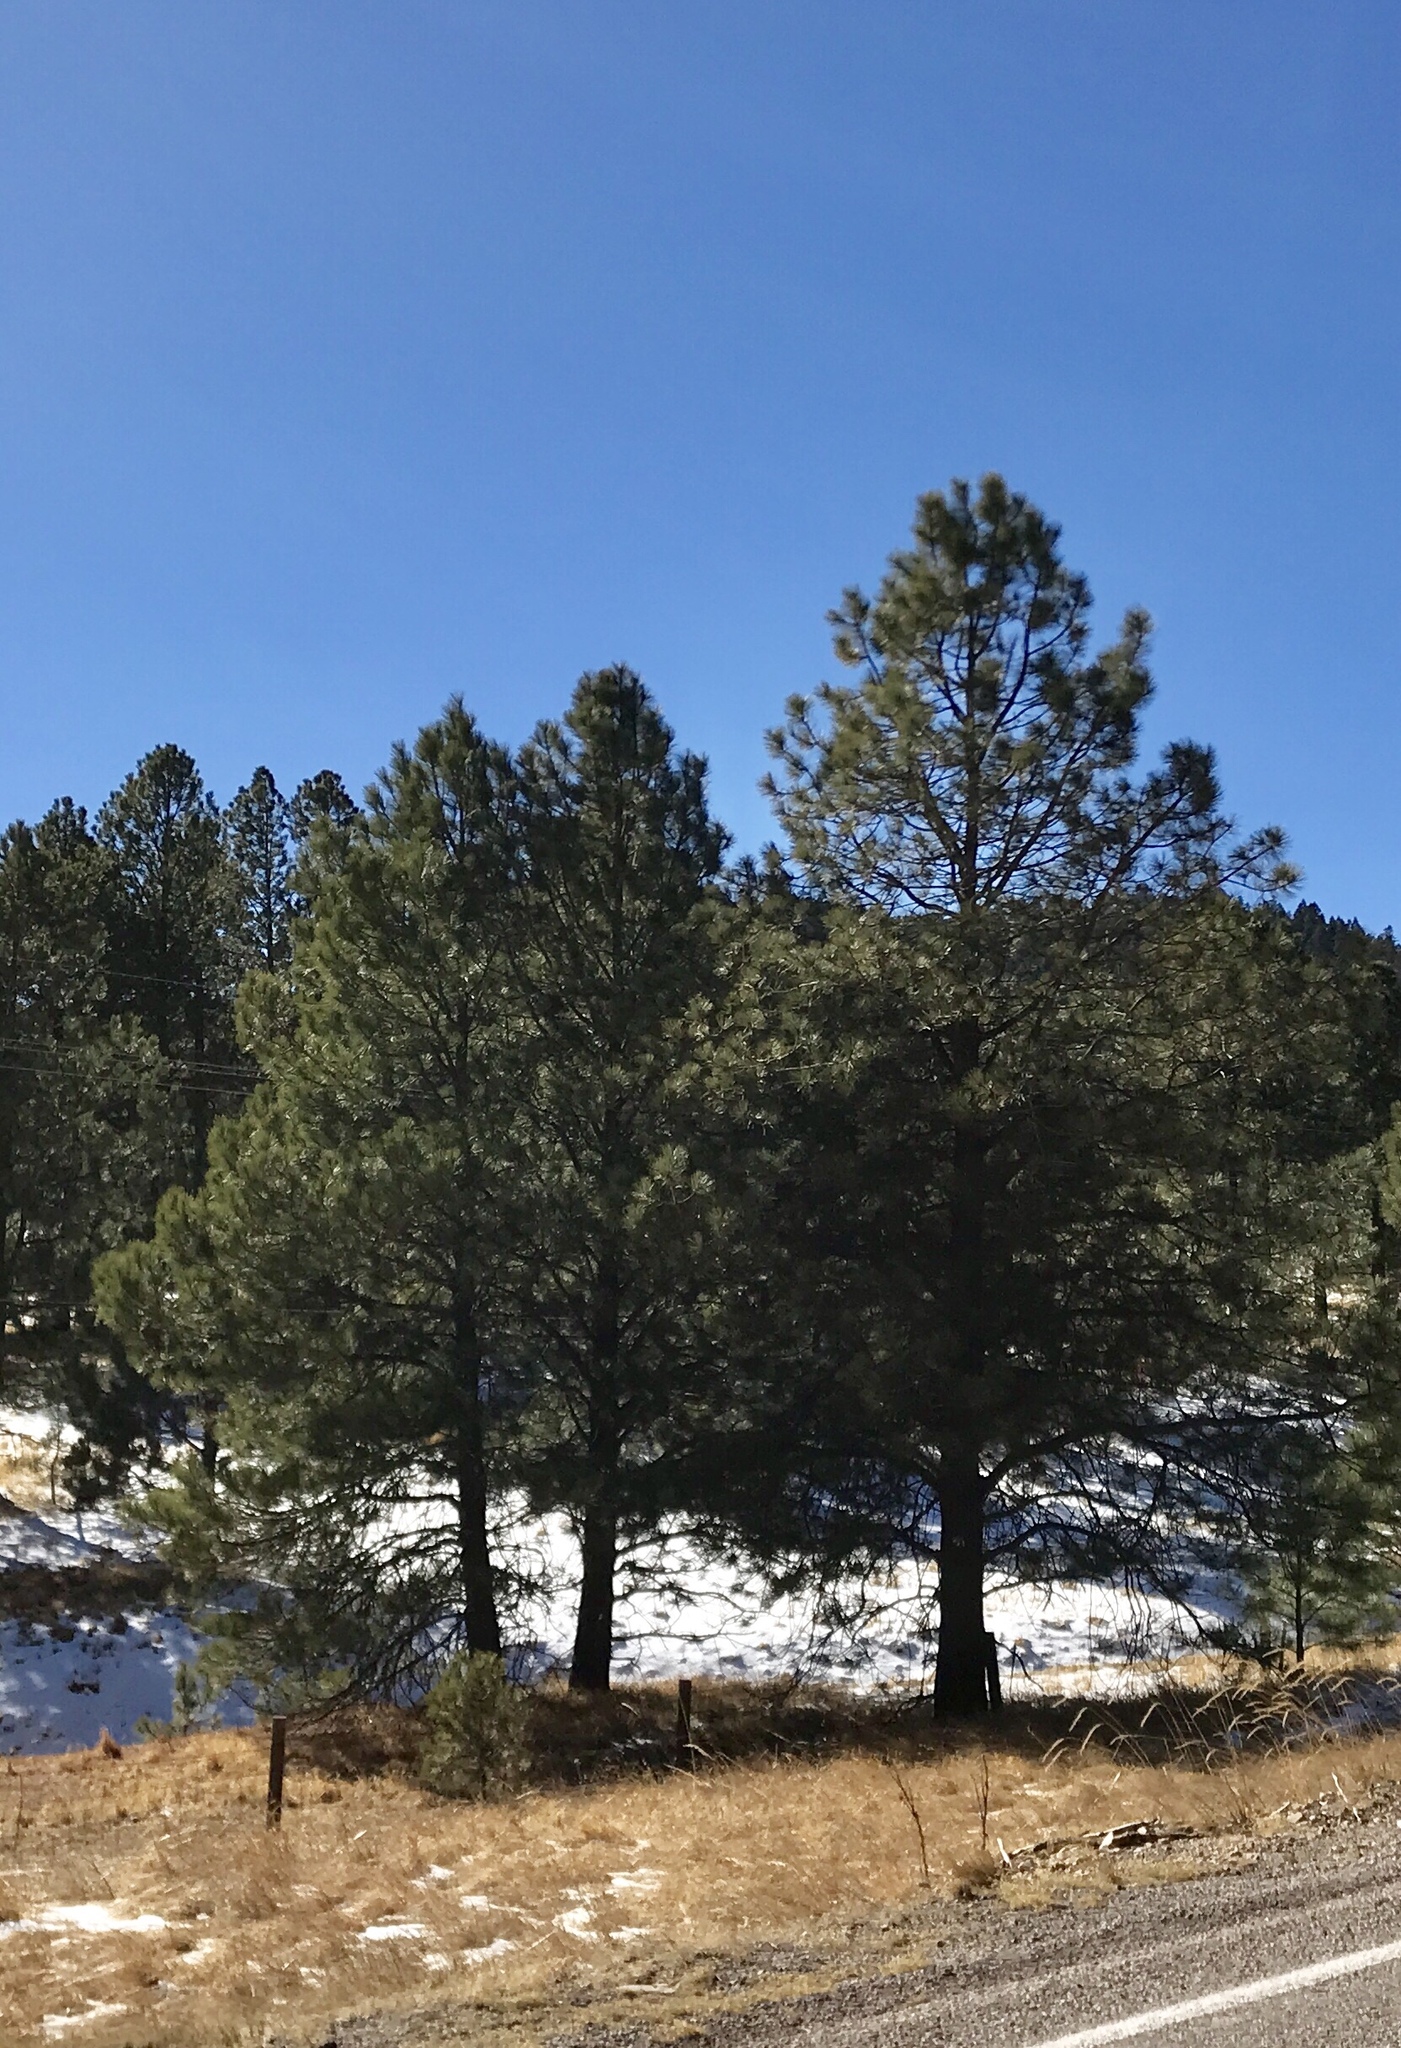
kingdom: Plantae
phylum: Tracheophyta
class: Pinopsida
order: Pinales
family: Pinaceae
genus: Pinus
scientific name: Pinus ponderosa
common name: Western yellow-pine
